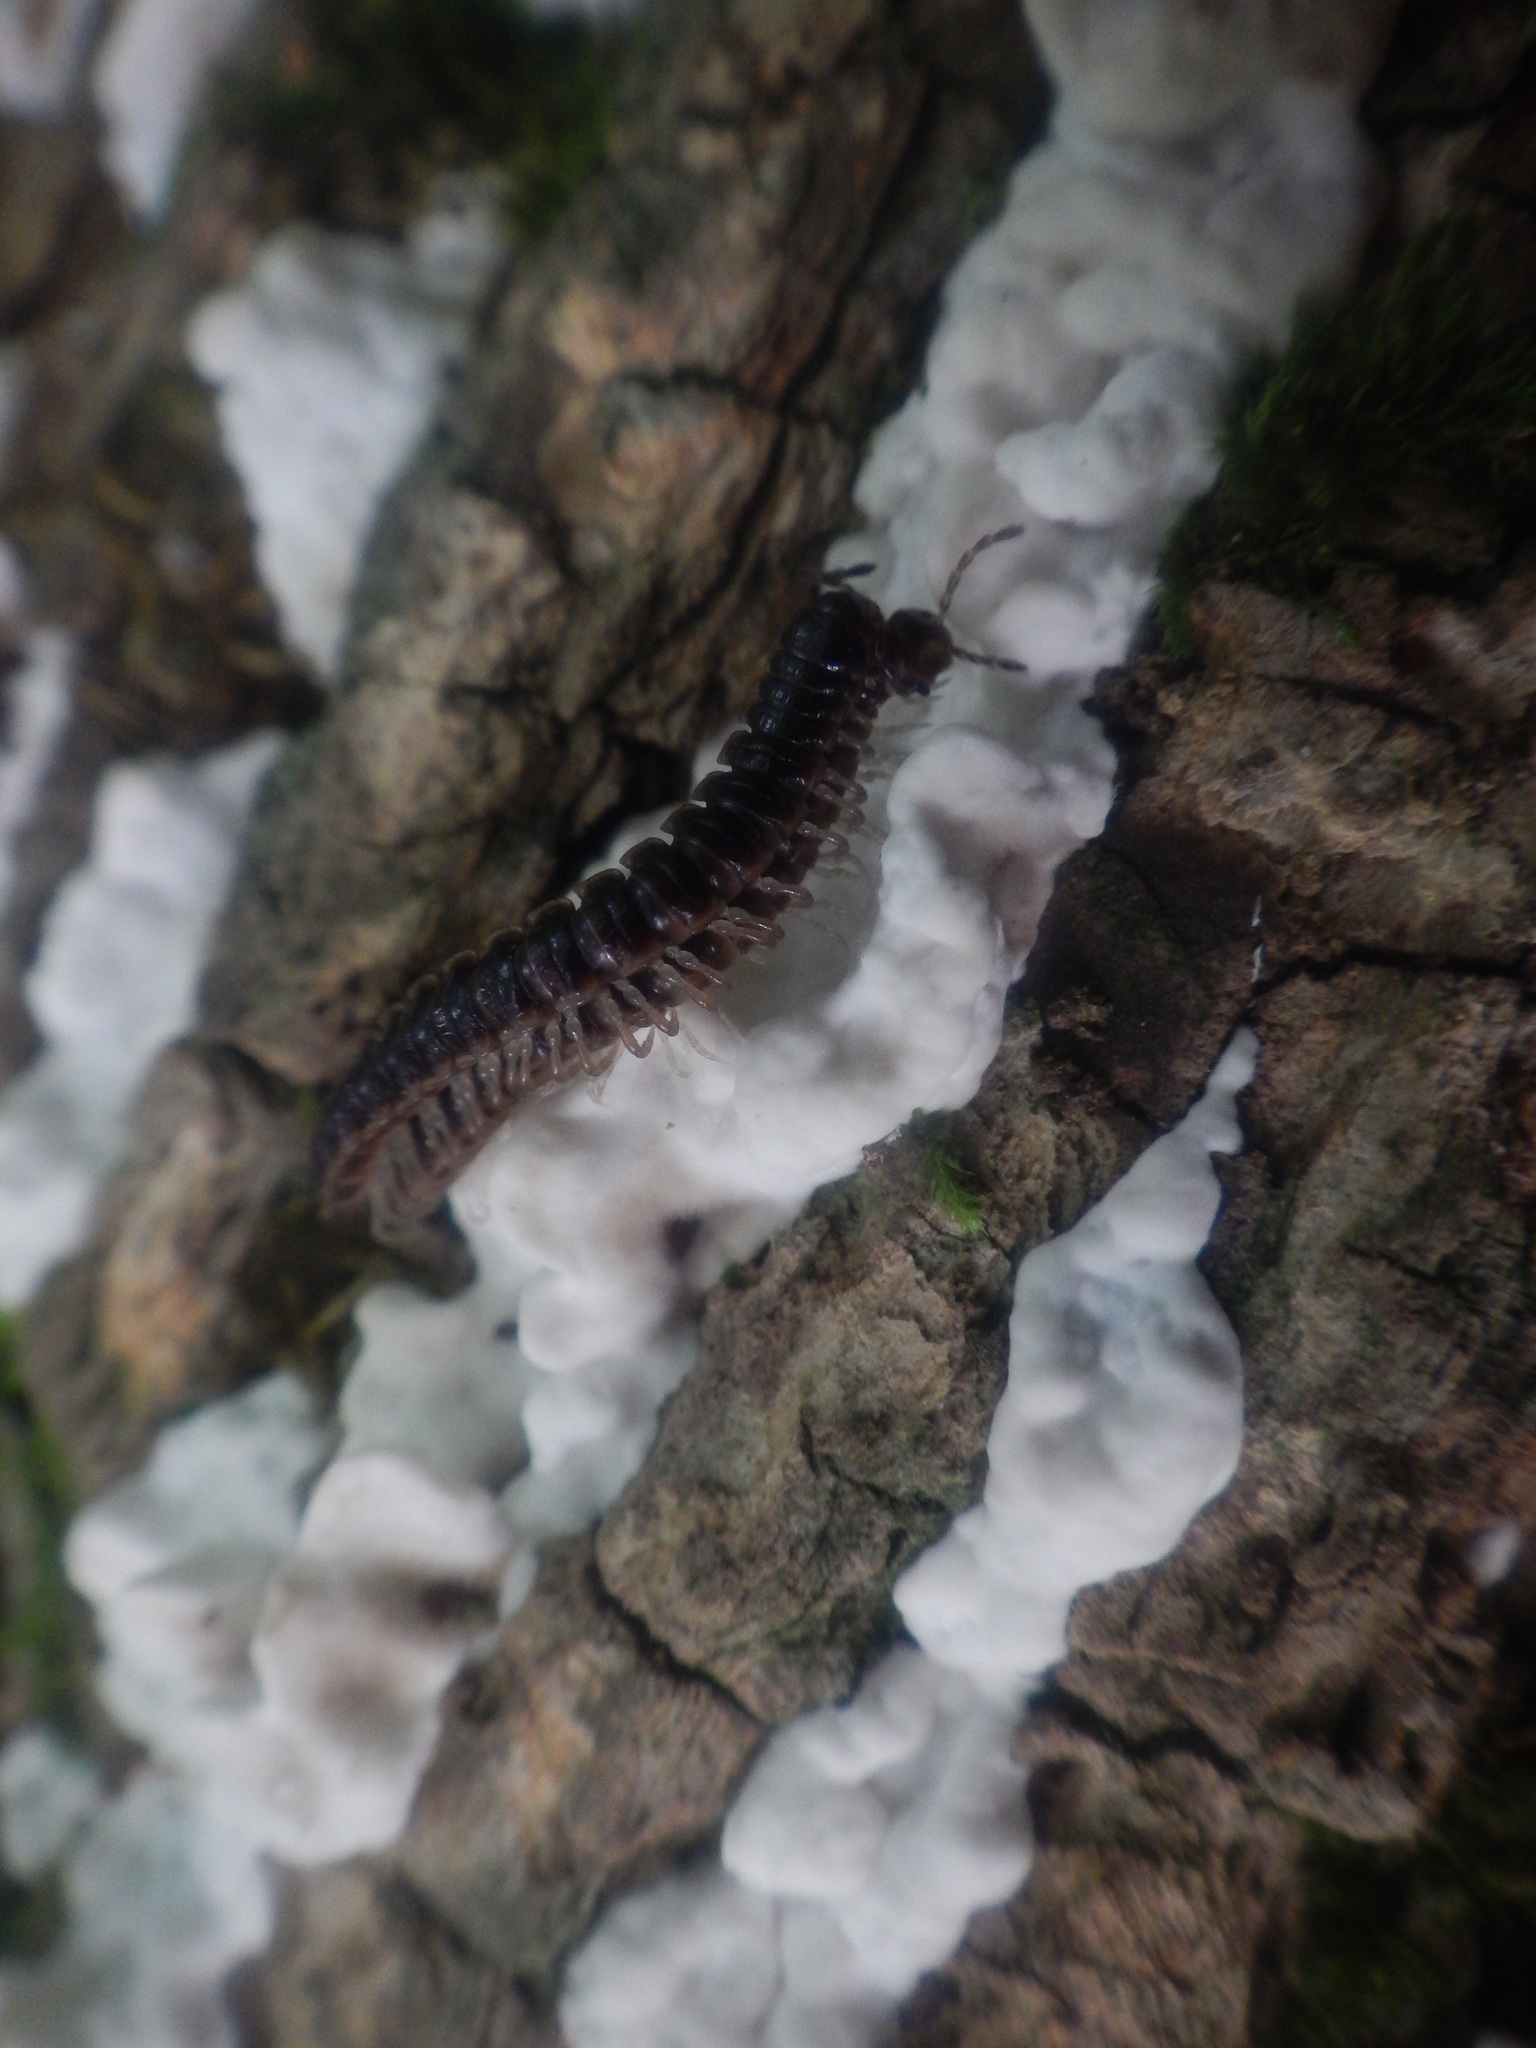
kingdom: Animalia
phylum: Arthropoda
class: Diplopoda
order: Polydesmida
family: Paradoxosomatidae
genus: Oxidus
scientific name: Oxidus gracilis
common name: Greenhouse millipede
